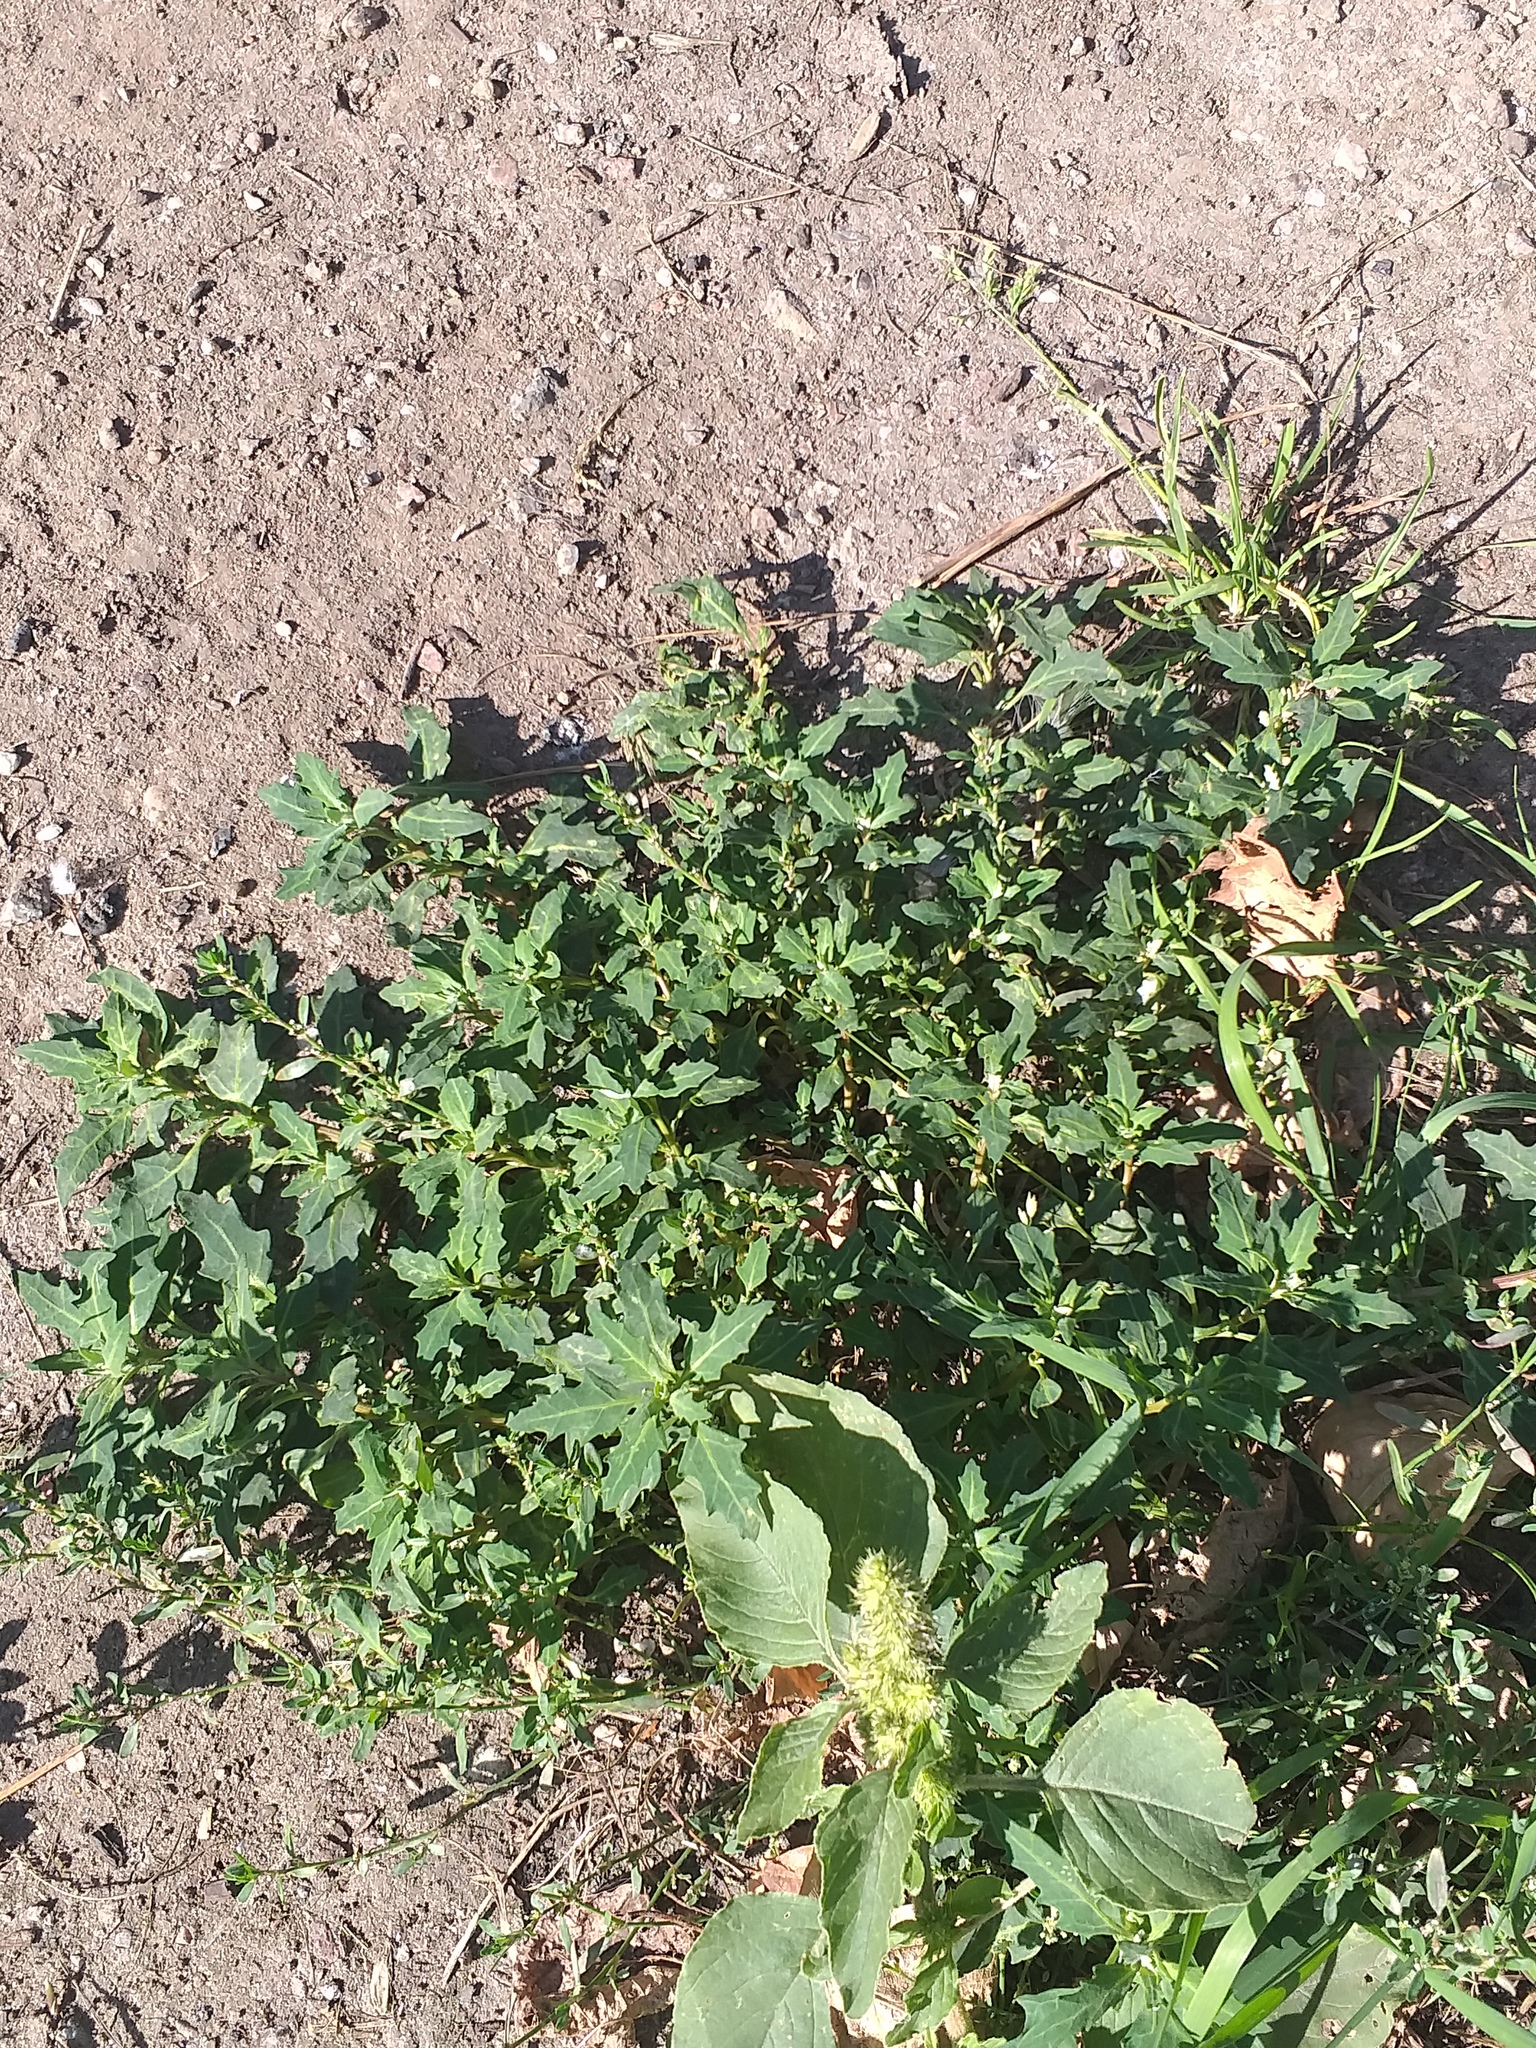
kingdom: Plantae
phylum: Tracheophyta
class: Magnoliopsida
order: Caryophyllales
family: Amaranthaceae
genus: Oxybasis
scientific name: Oxybasis glauca
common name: Glaucous goosefoot
